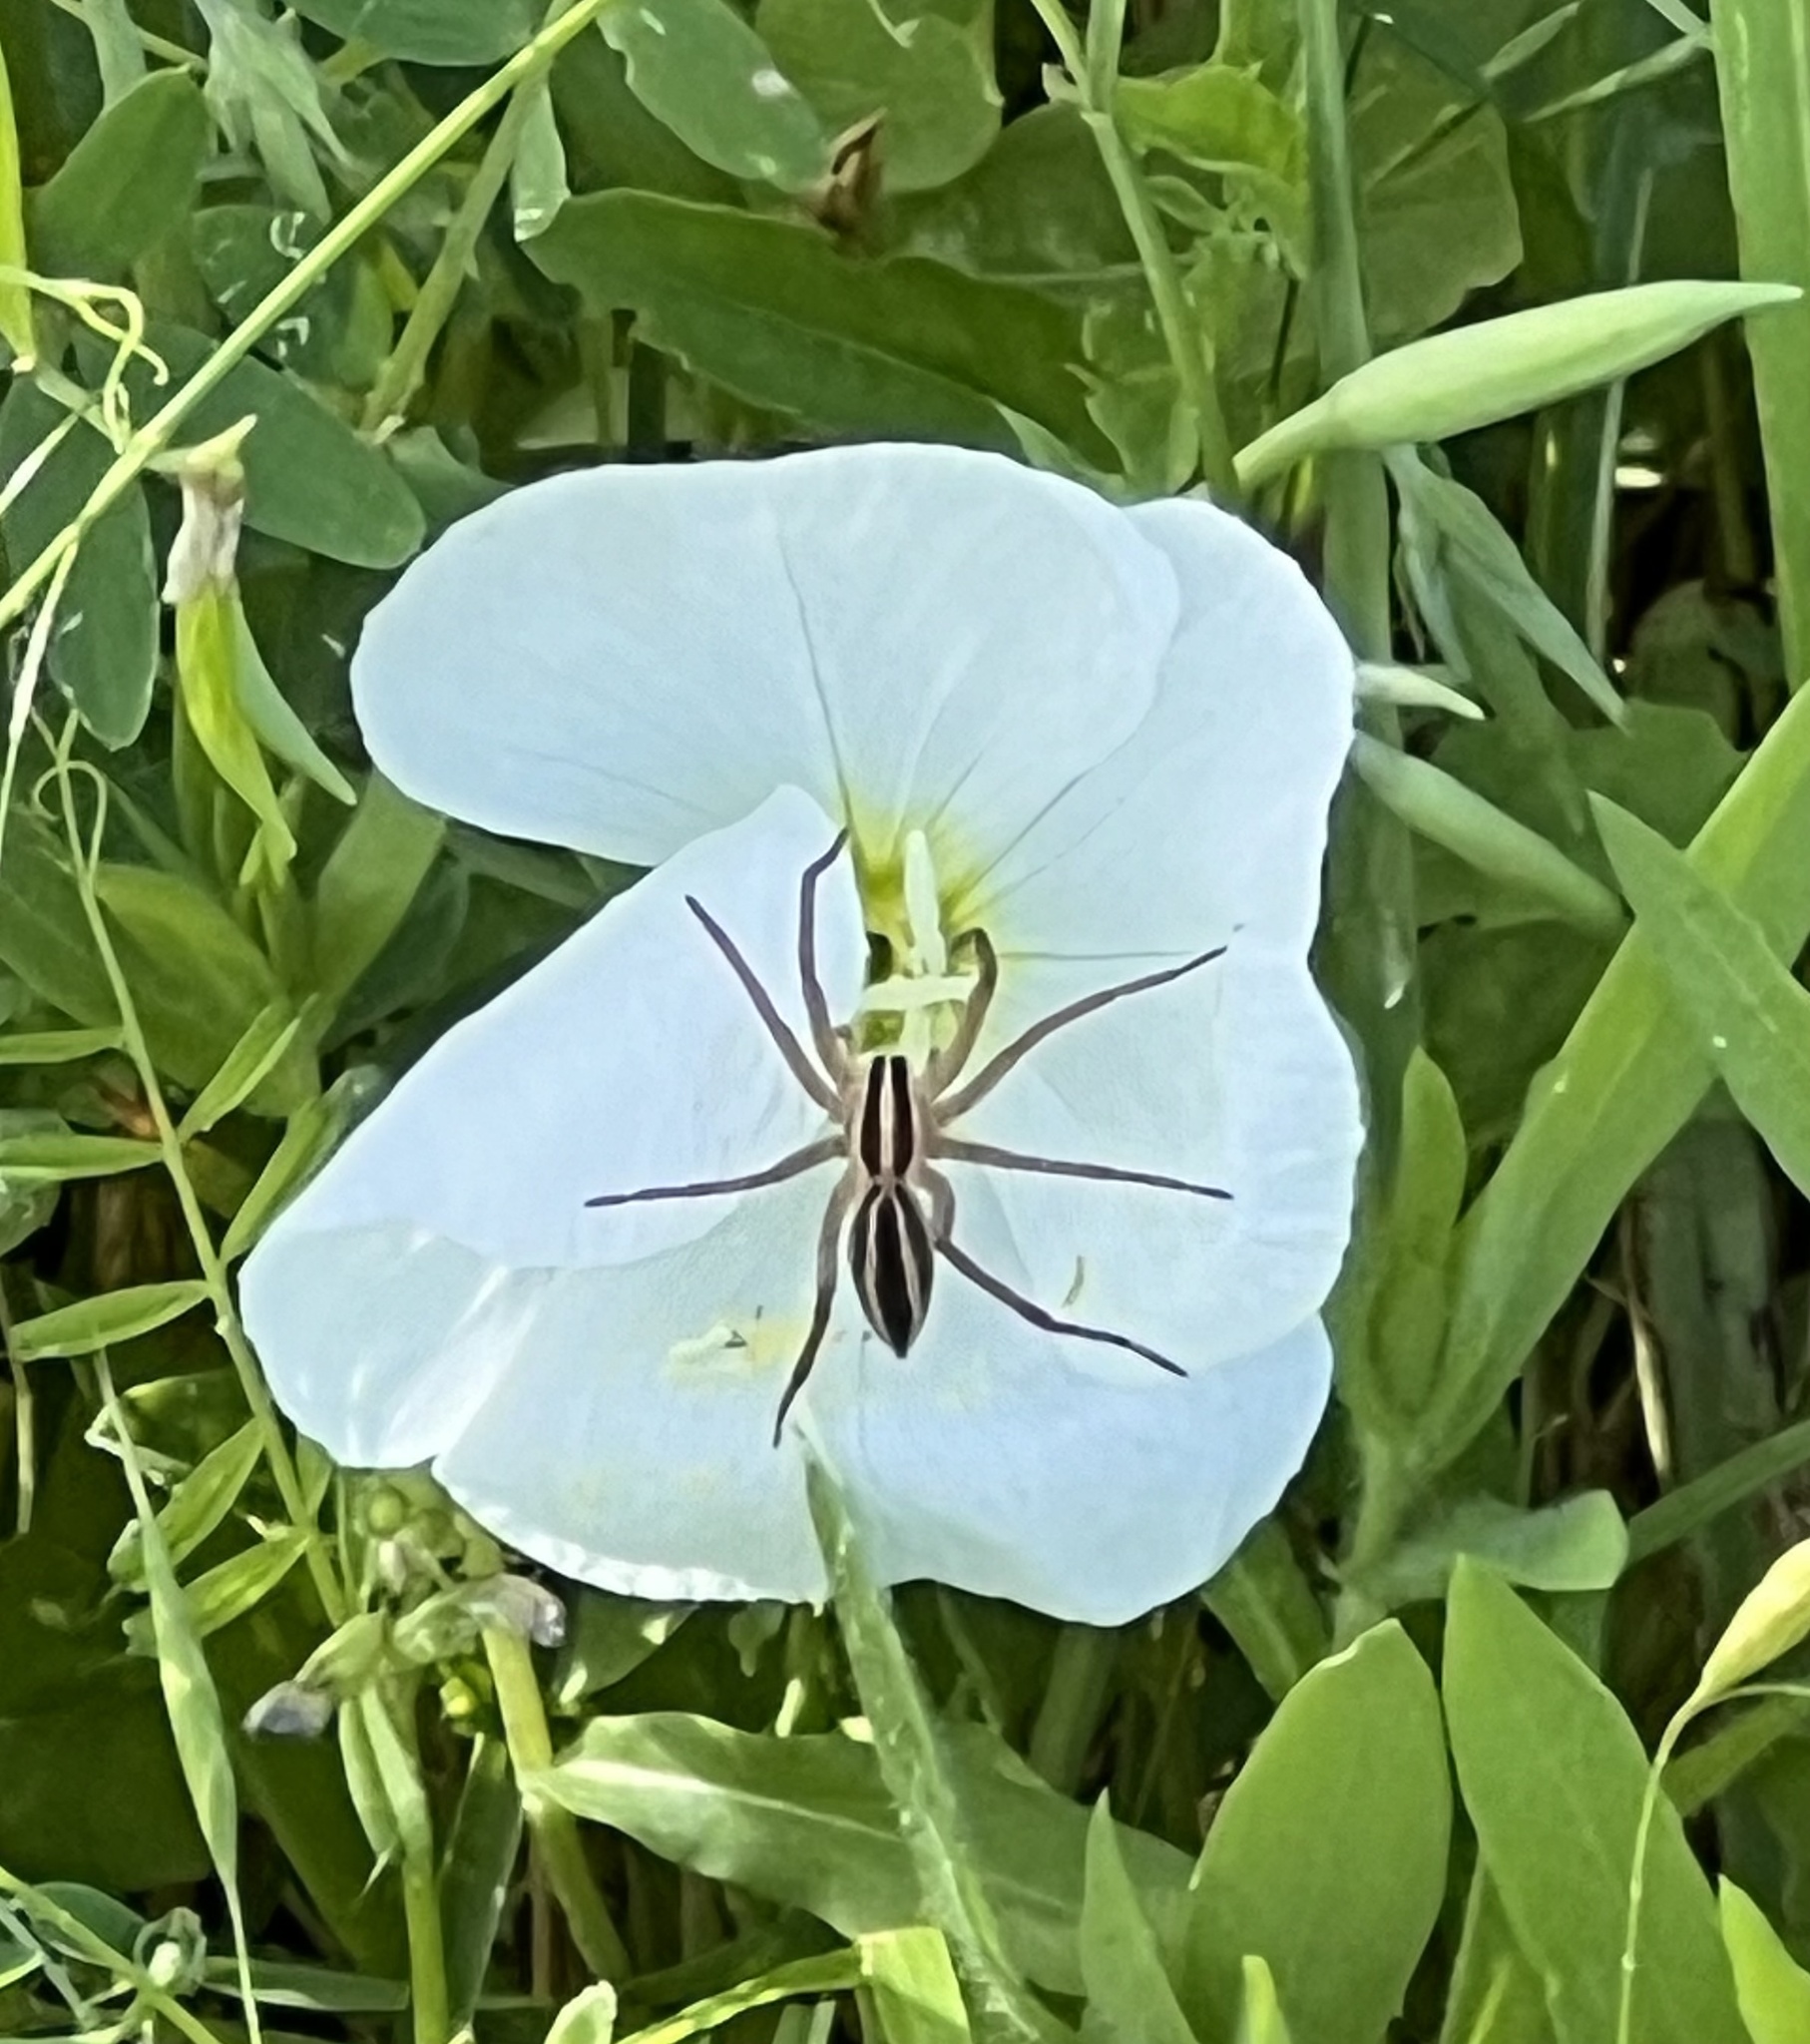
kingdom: Animalia
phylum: Arthropoda
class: Arachnida
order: Araneae
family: Lycosidae
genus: Rabidosa
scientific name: Rabidosa
